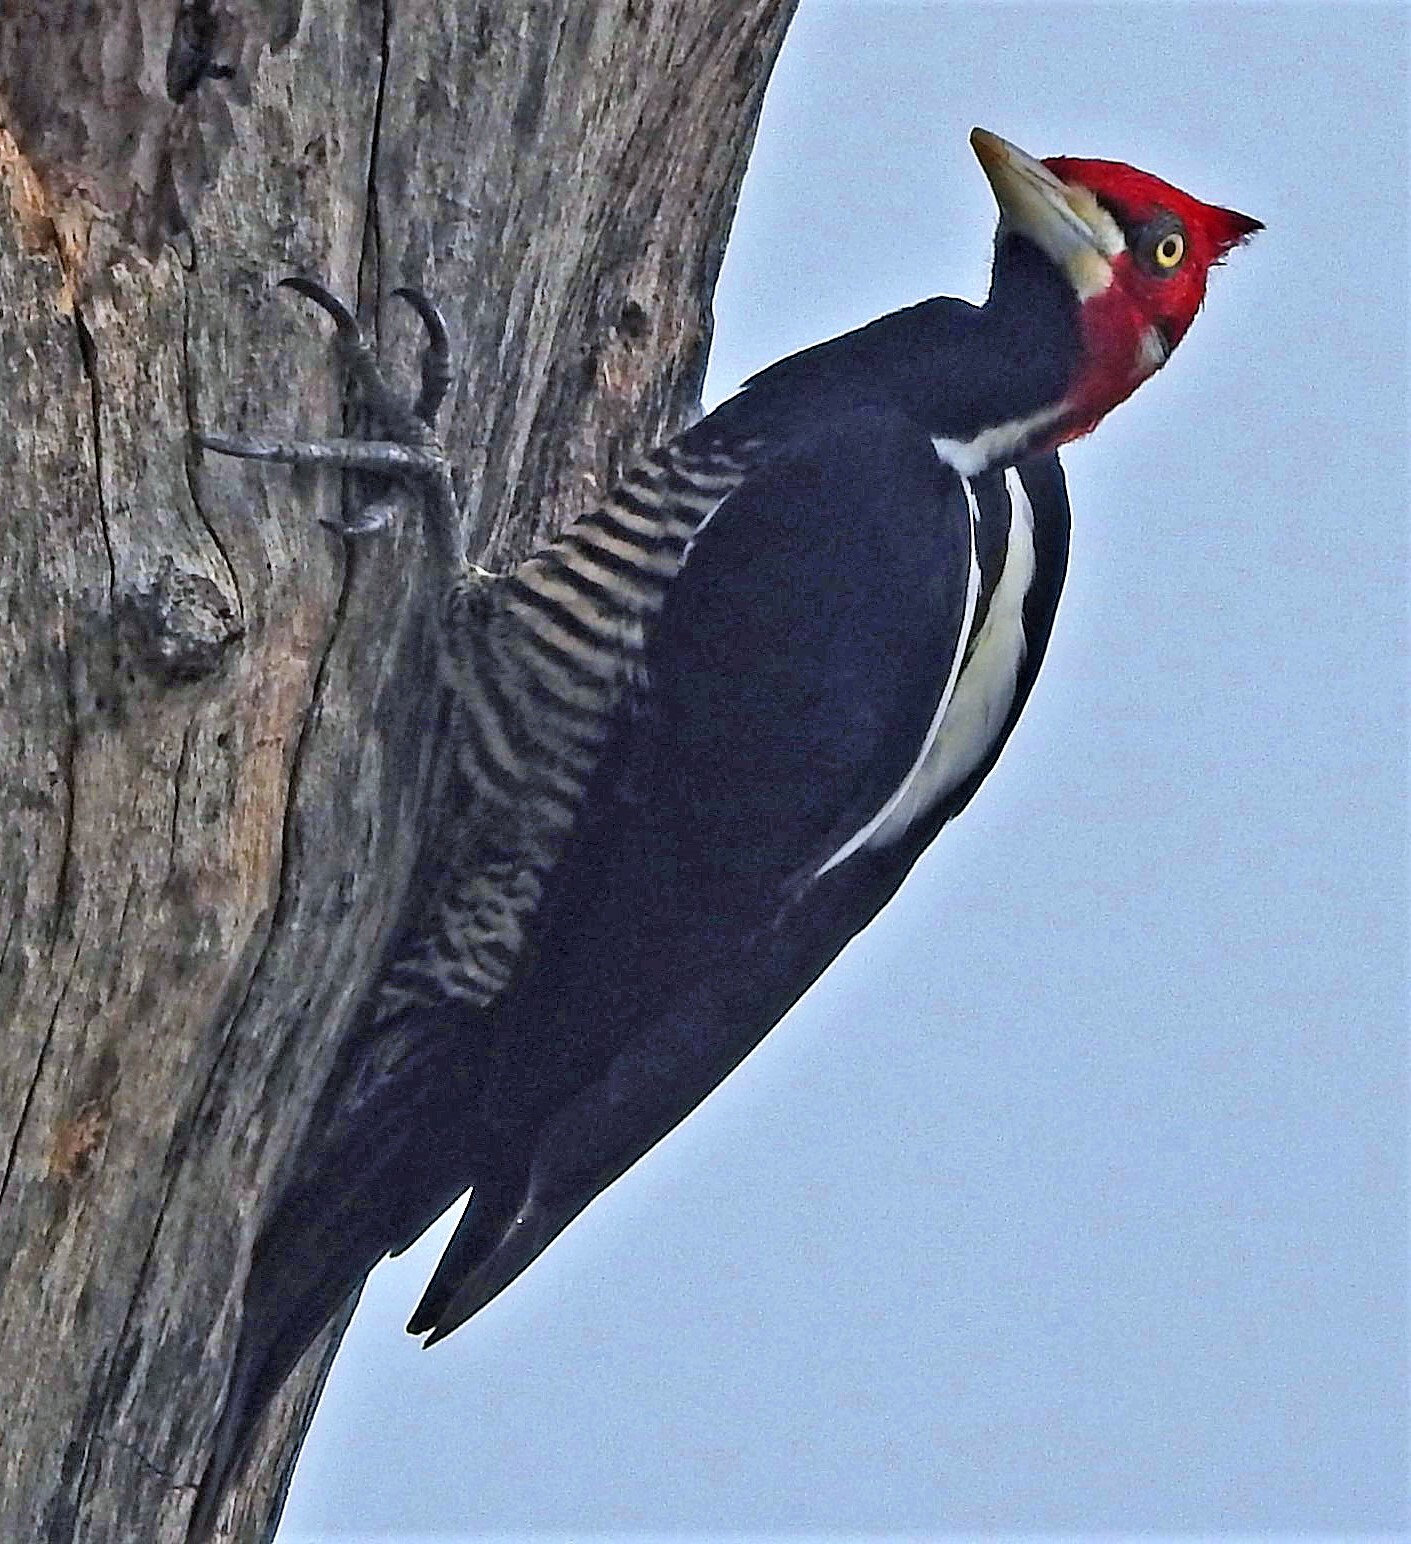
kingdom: Animalia
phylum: Chordata
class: Aves
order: Piciformes
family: Picidae
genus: Campephilus
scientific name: Campephilus melanoleucos
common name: Crimson-crested woodpecker
